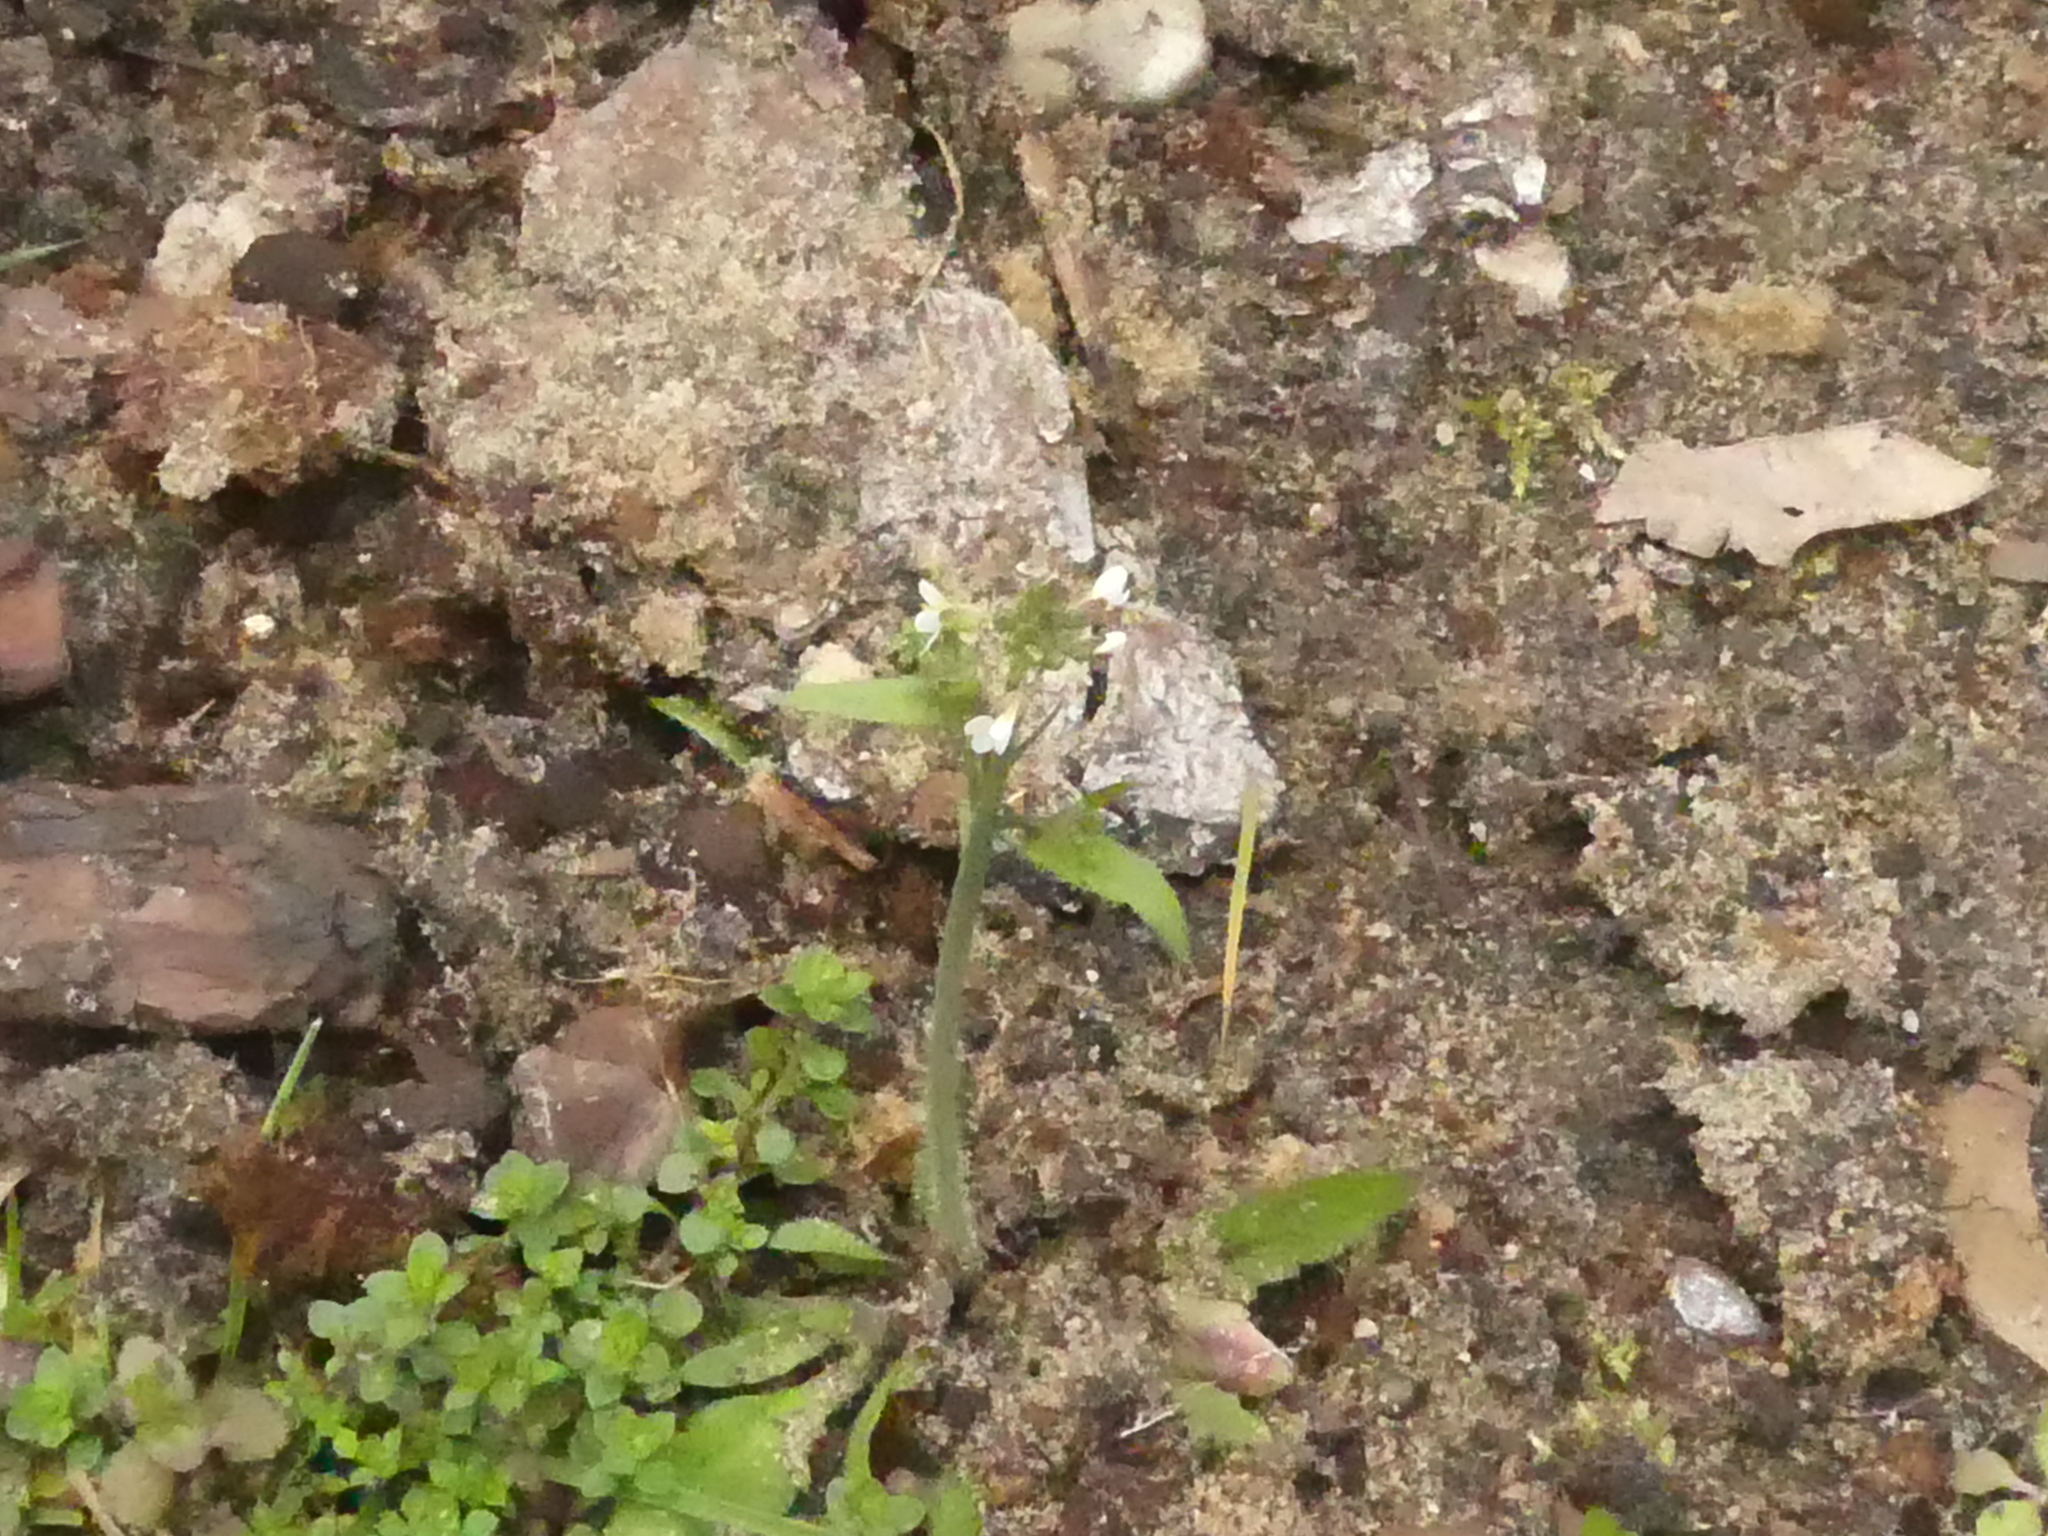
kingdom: Plantae
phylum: Tracheophyta
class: Magnoliopsida
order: Brassicales
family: Brassicaceae
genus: Arabidopsis
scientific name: Arabidopsis thaliana
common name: Thale cress
